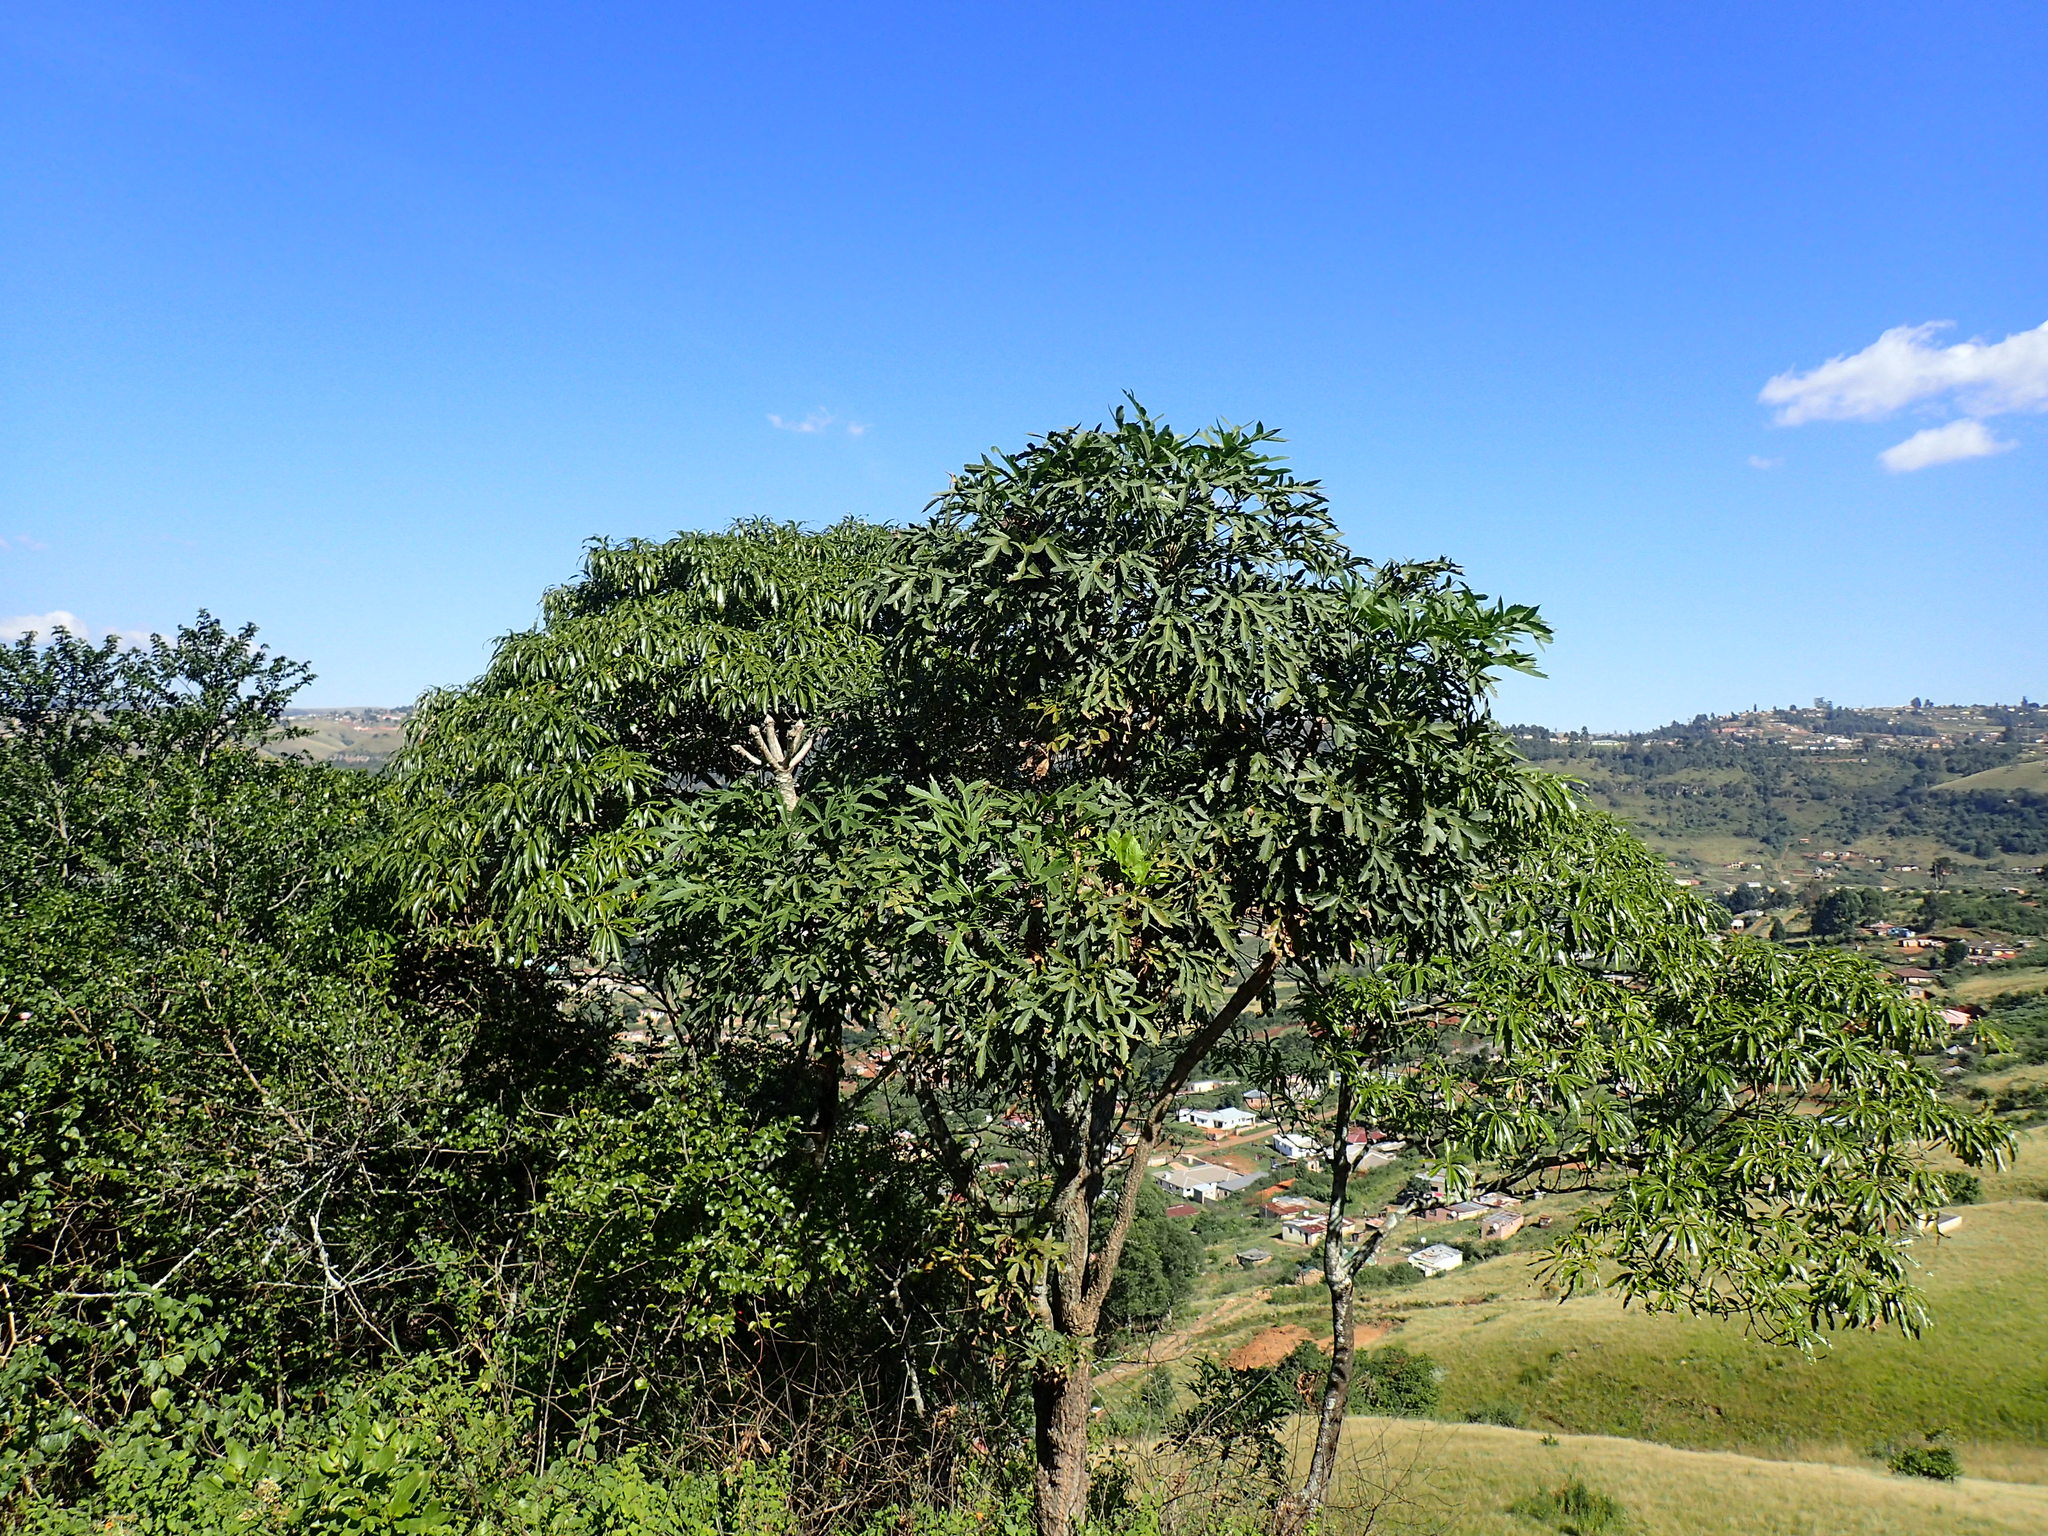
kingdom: Plantae
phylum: Tracheophyta
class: Magnoliopsida
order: Apiales
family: Araliaceae
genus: Cussonia
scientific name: Cussonia spicata
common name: Common cabbagetree
